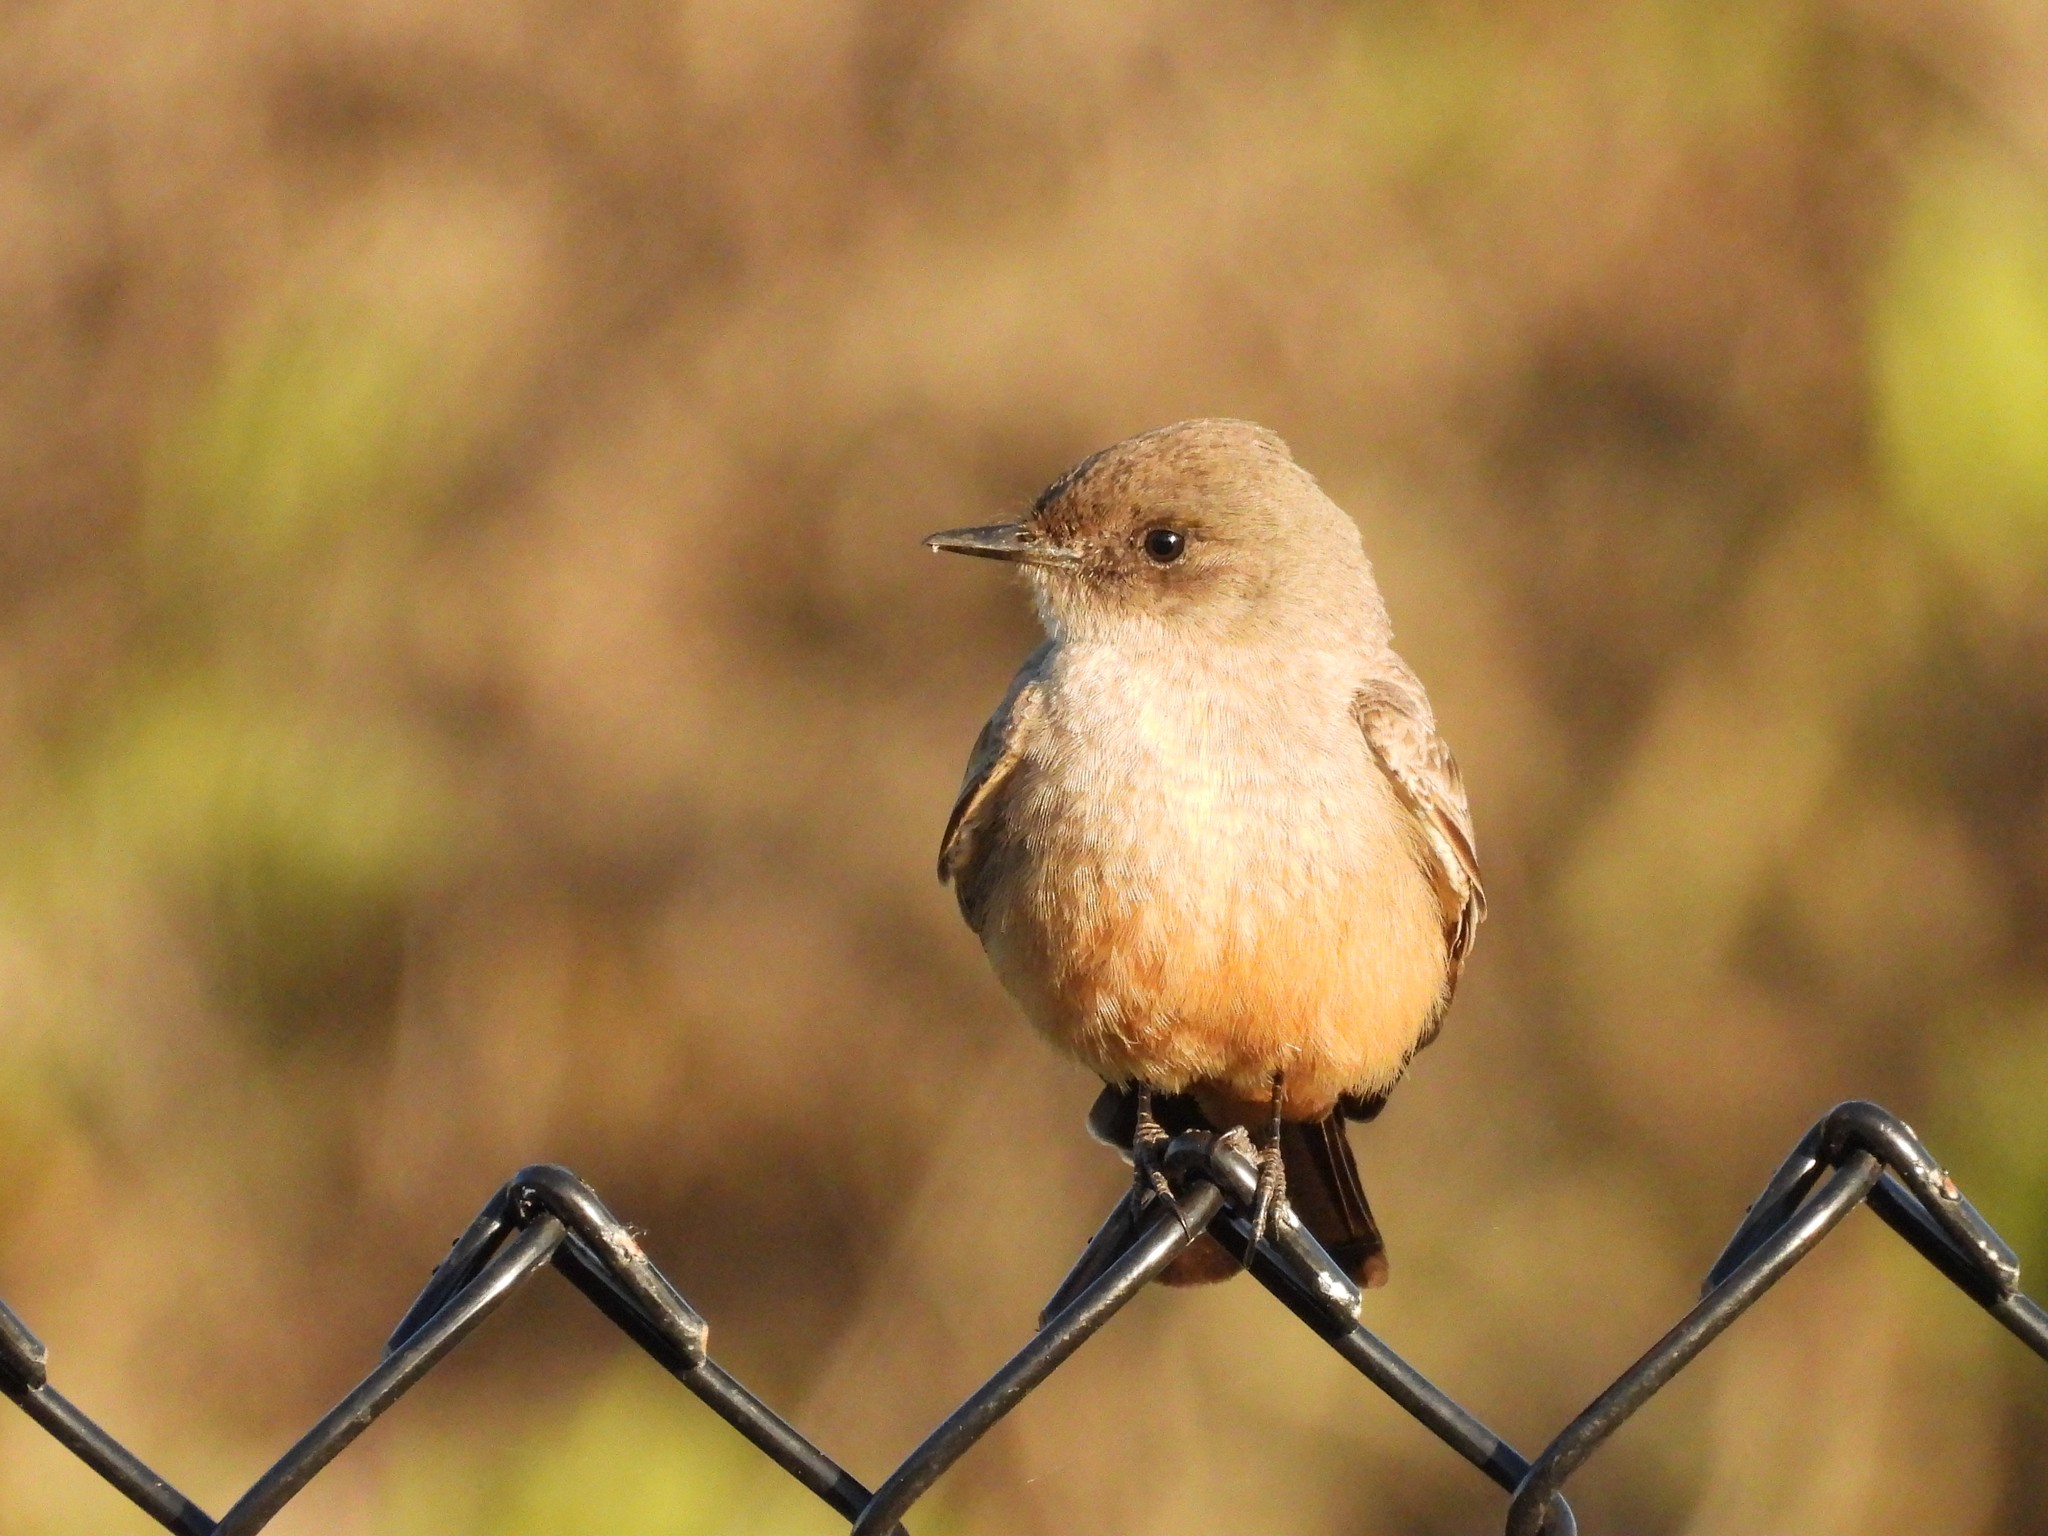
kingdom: Animalia
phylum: Chordata
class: Aves
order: Passeriformes
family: Tyrannidae
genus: Sayornis
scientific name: Sayornis saya
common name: Say's phoebe
